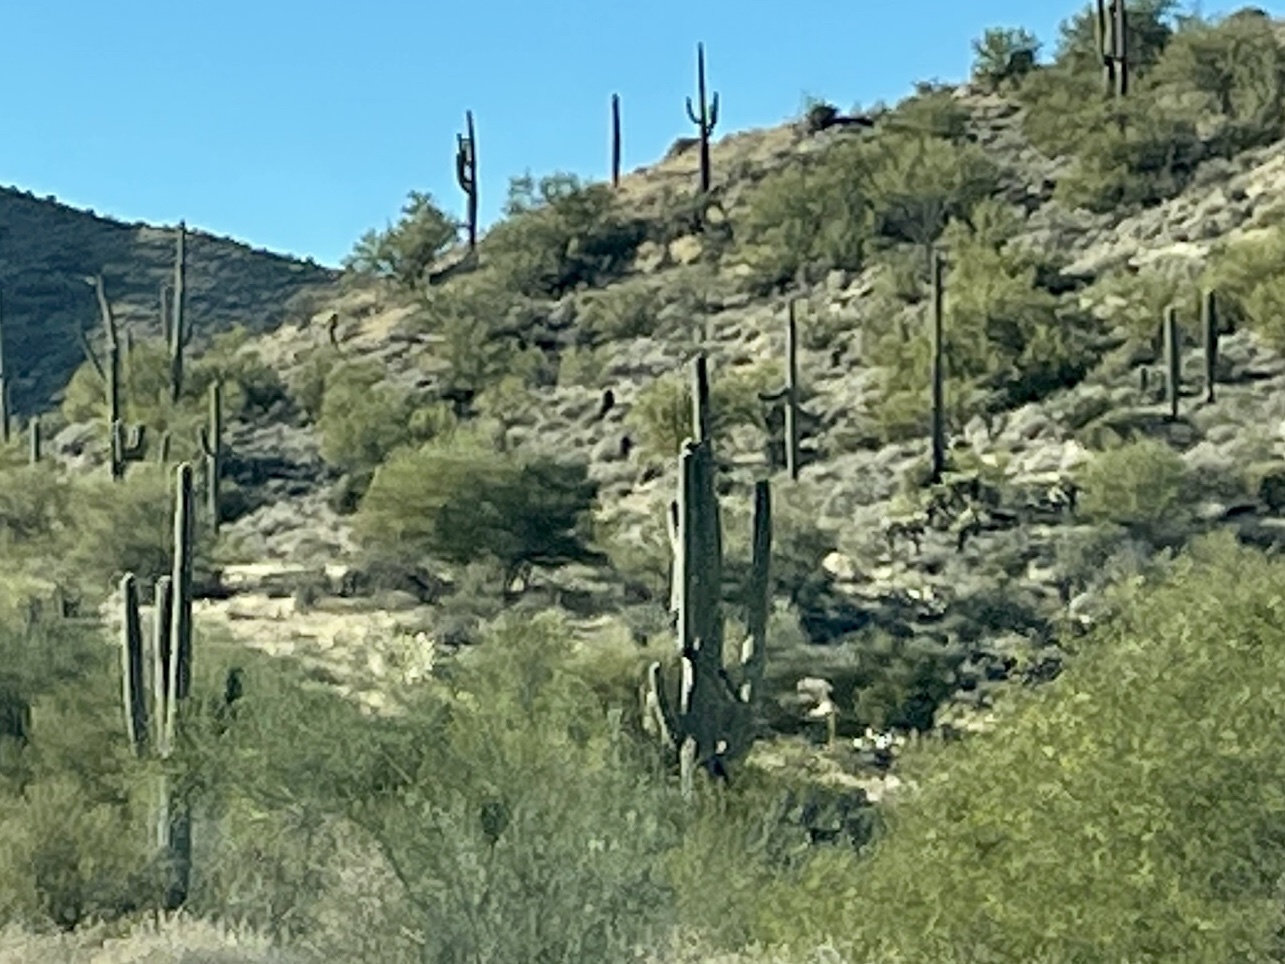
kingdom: Plantae
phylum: Tracheophyta
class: Magnoliopsida
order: Caryophyllales
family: Cactaceae
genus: Carnegiea
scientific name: Carnegiea gigantea
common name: Saguaro
